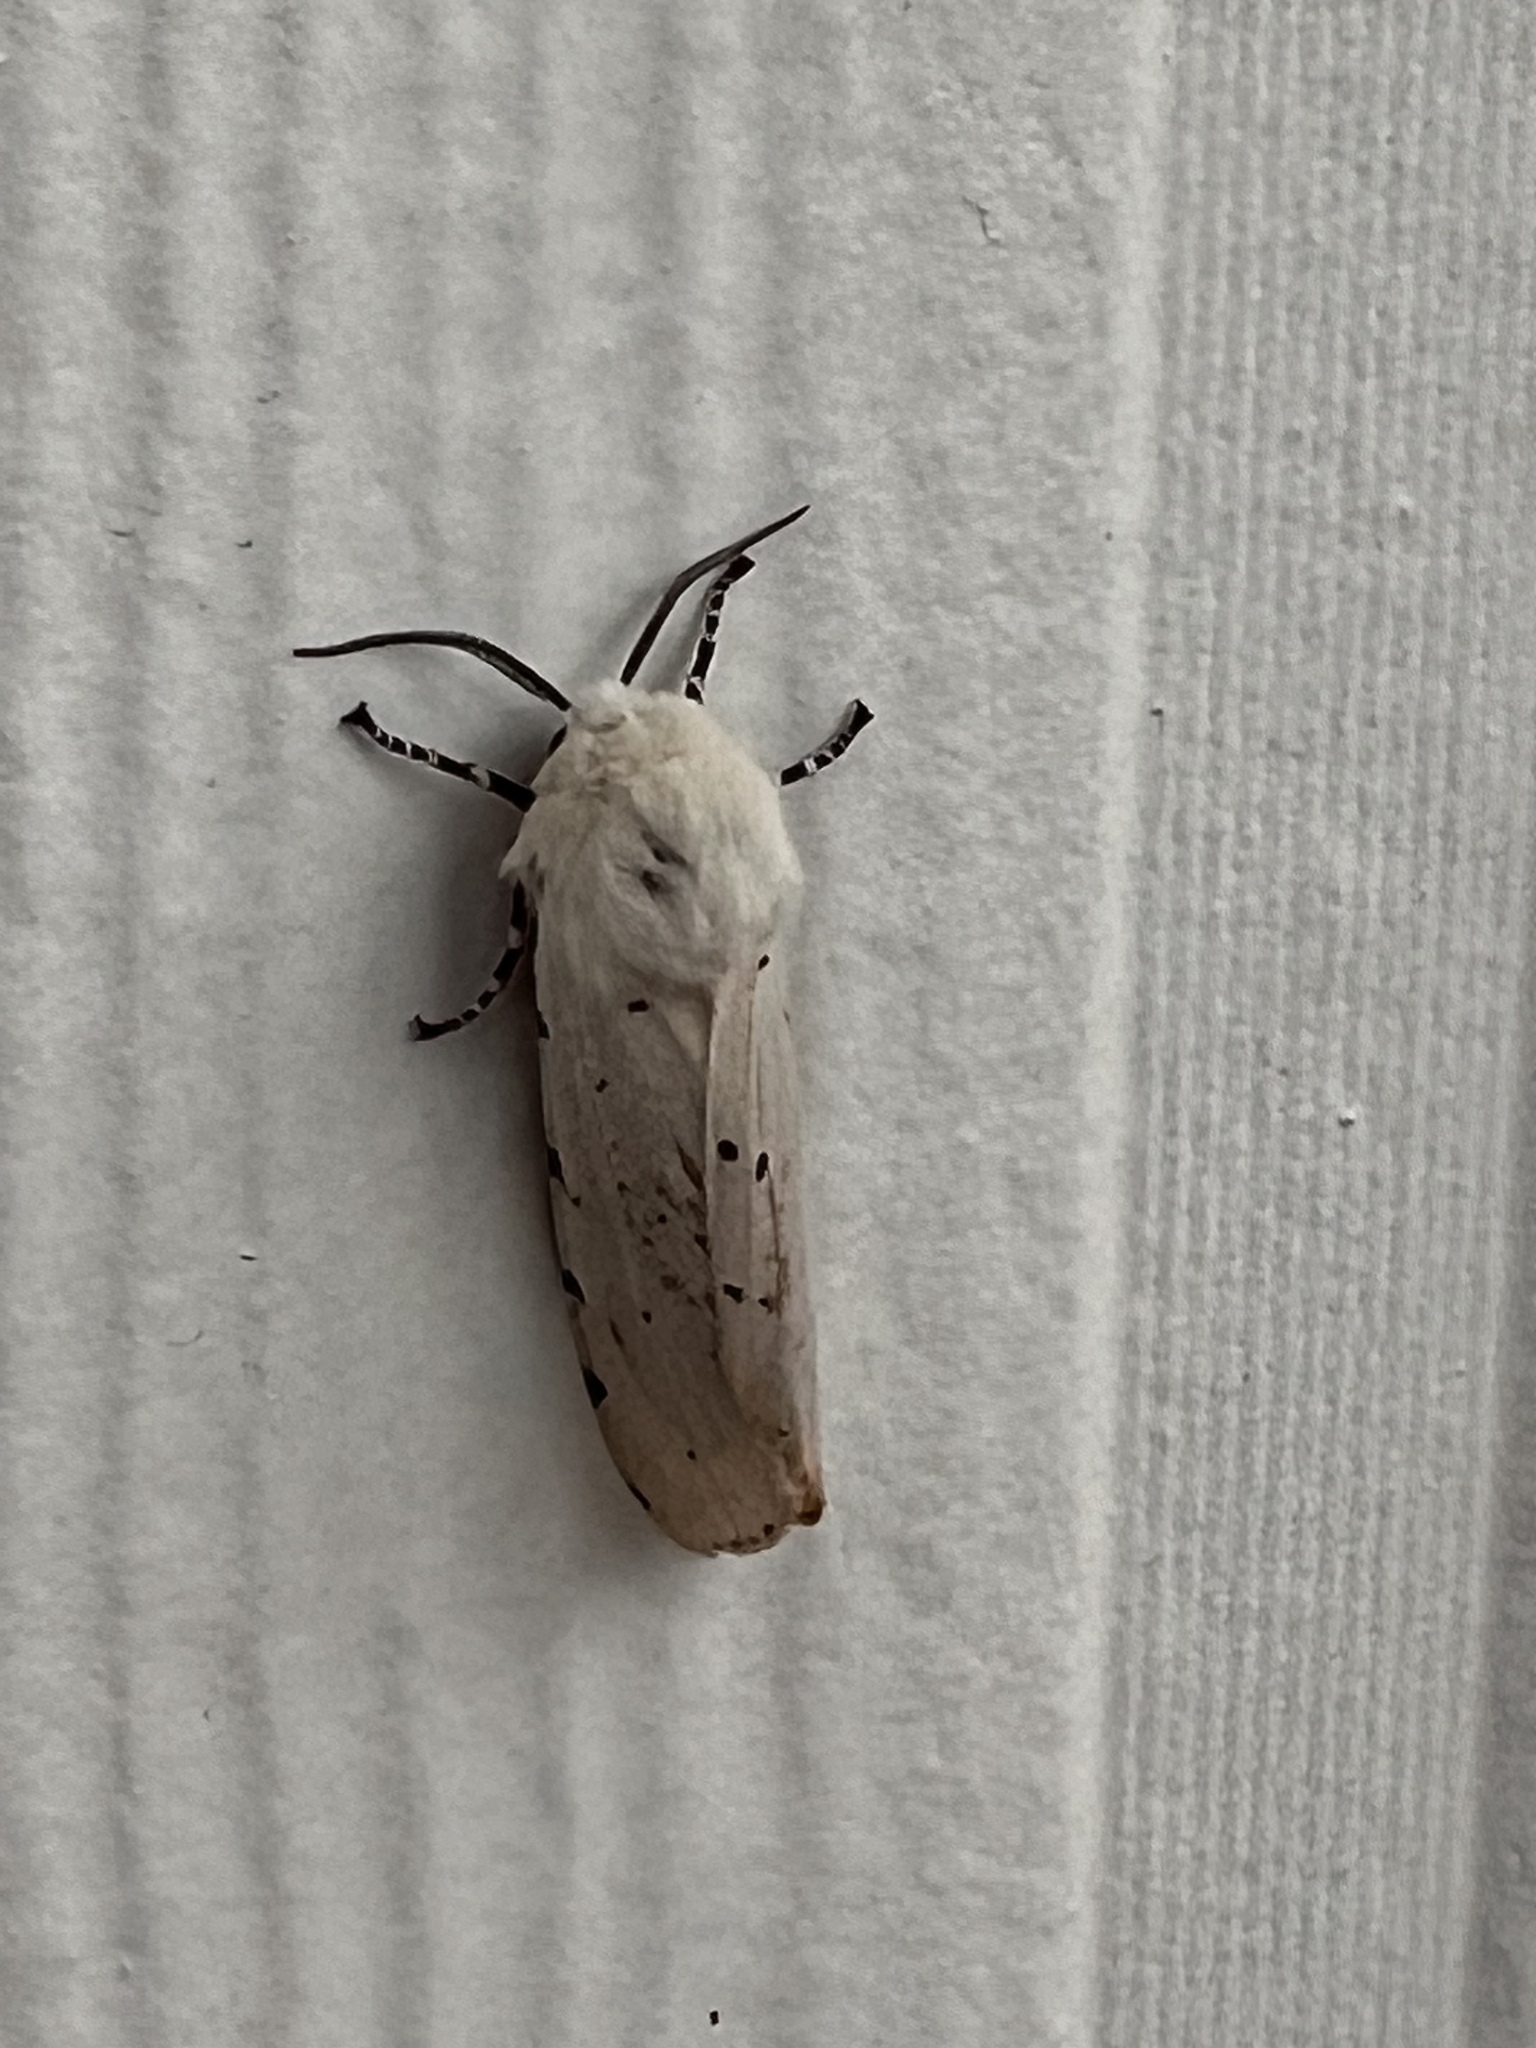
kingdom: Animalia
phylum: Arthropoda
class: Insecta
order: Lepidoptera
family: Erebidae
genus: Estigmene
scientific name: Estigmene acrea
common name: Salt marsh moth
